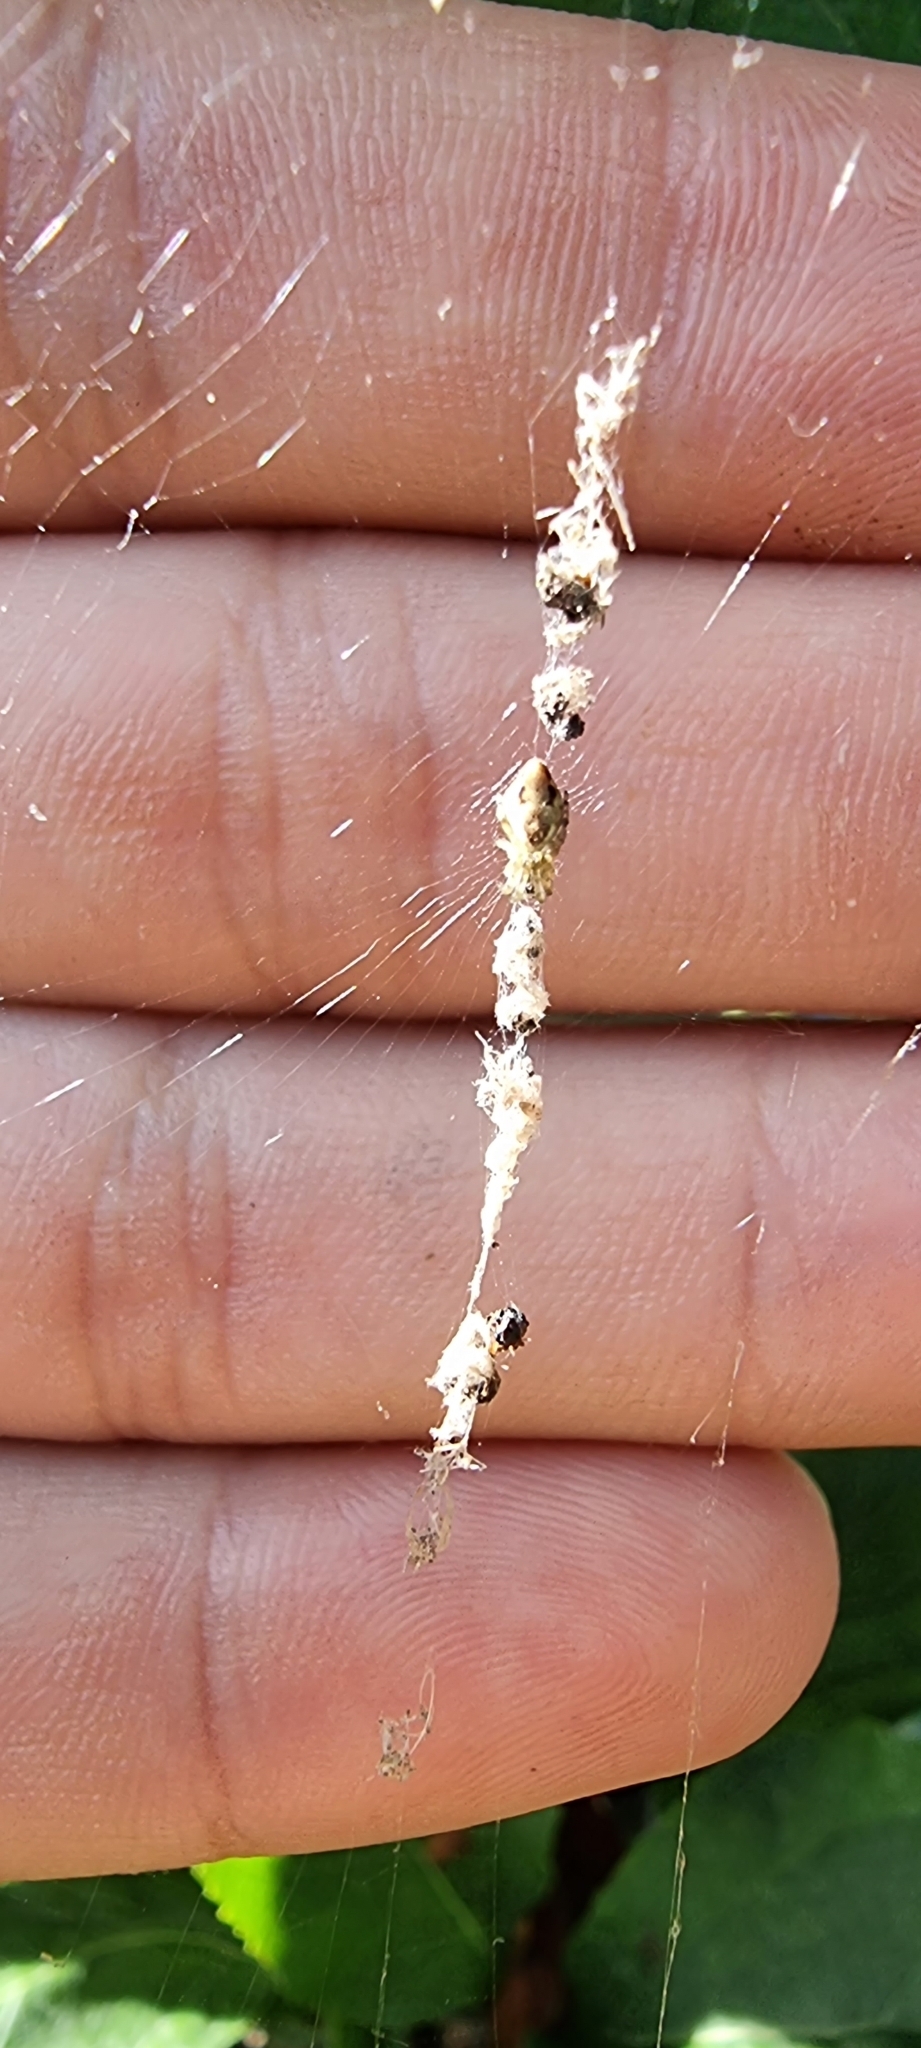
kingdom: Animalia
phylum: Arthropoda
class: Arachnida
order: Araneae
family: Araneidae
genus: Cyclosa
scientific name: Cyclosa conica
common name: Conical trashline orbweaver
